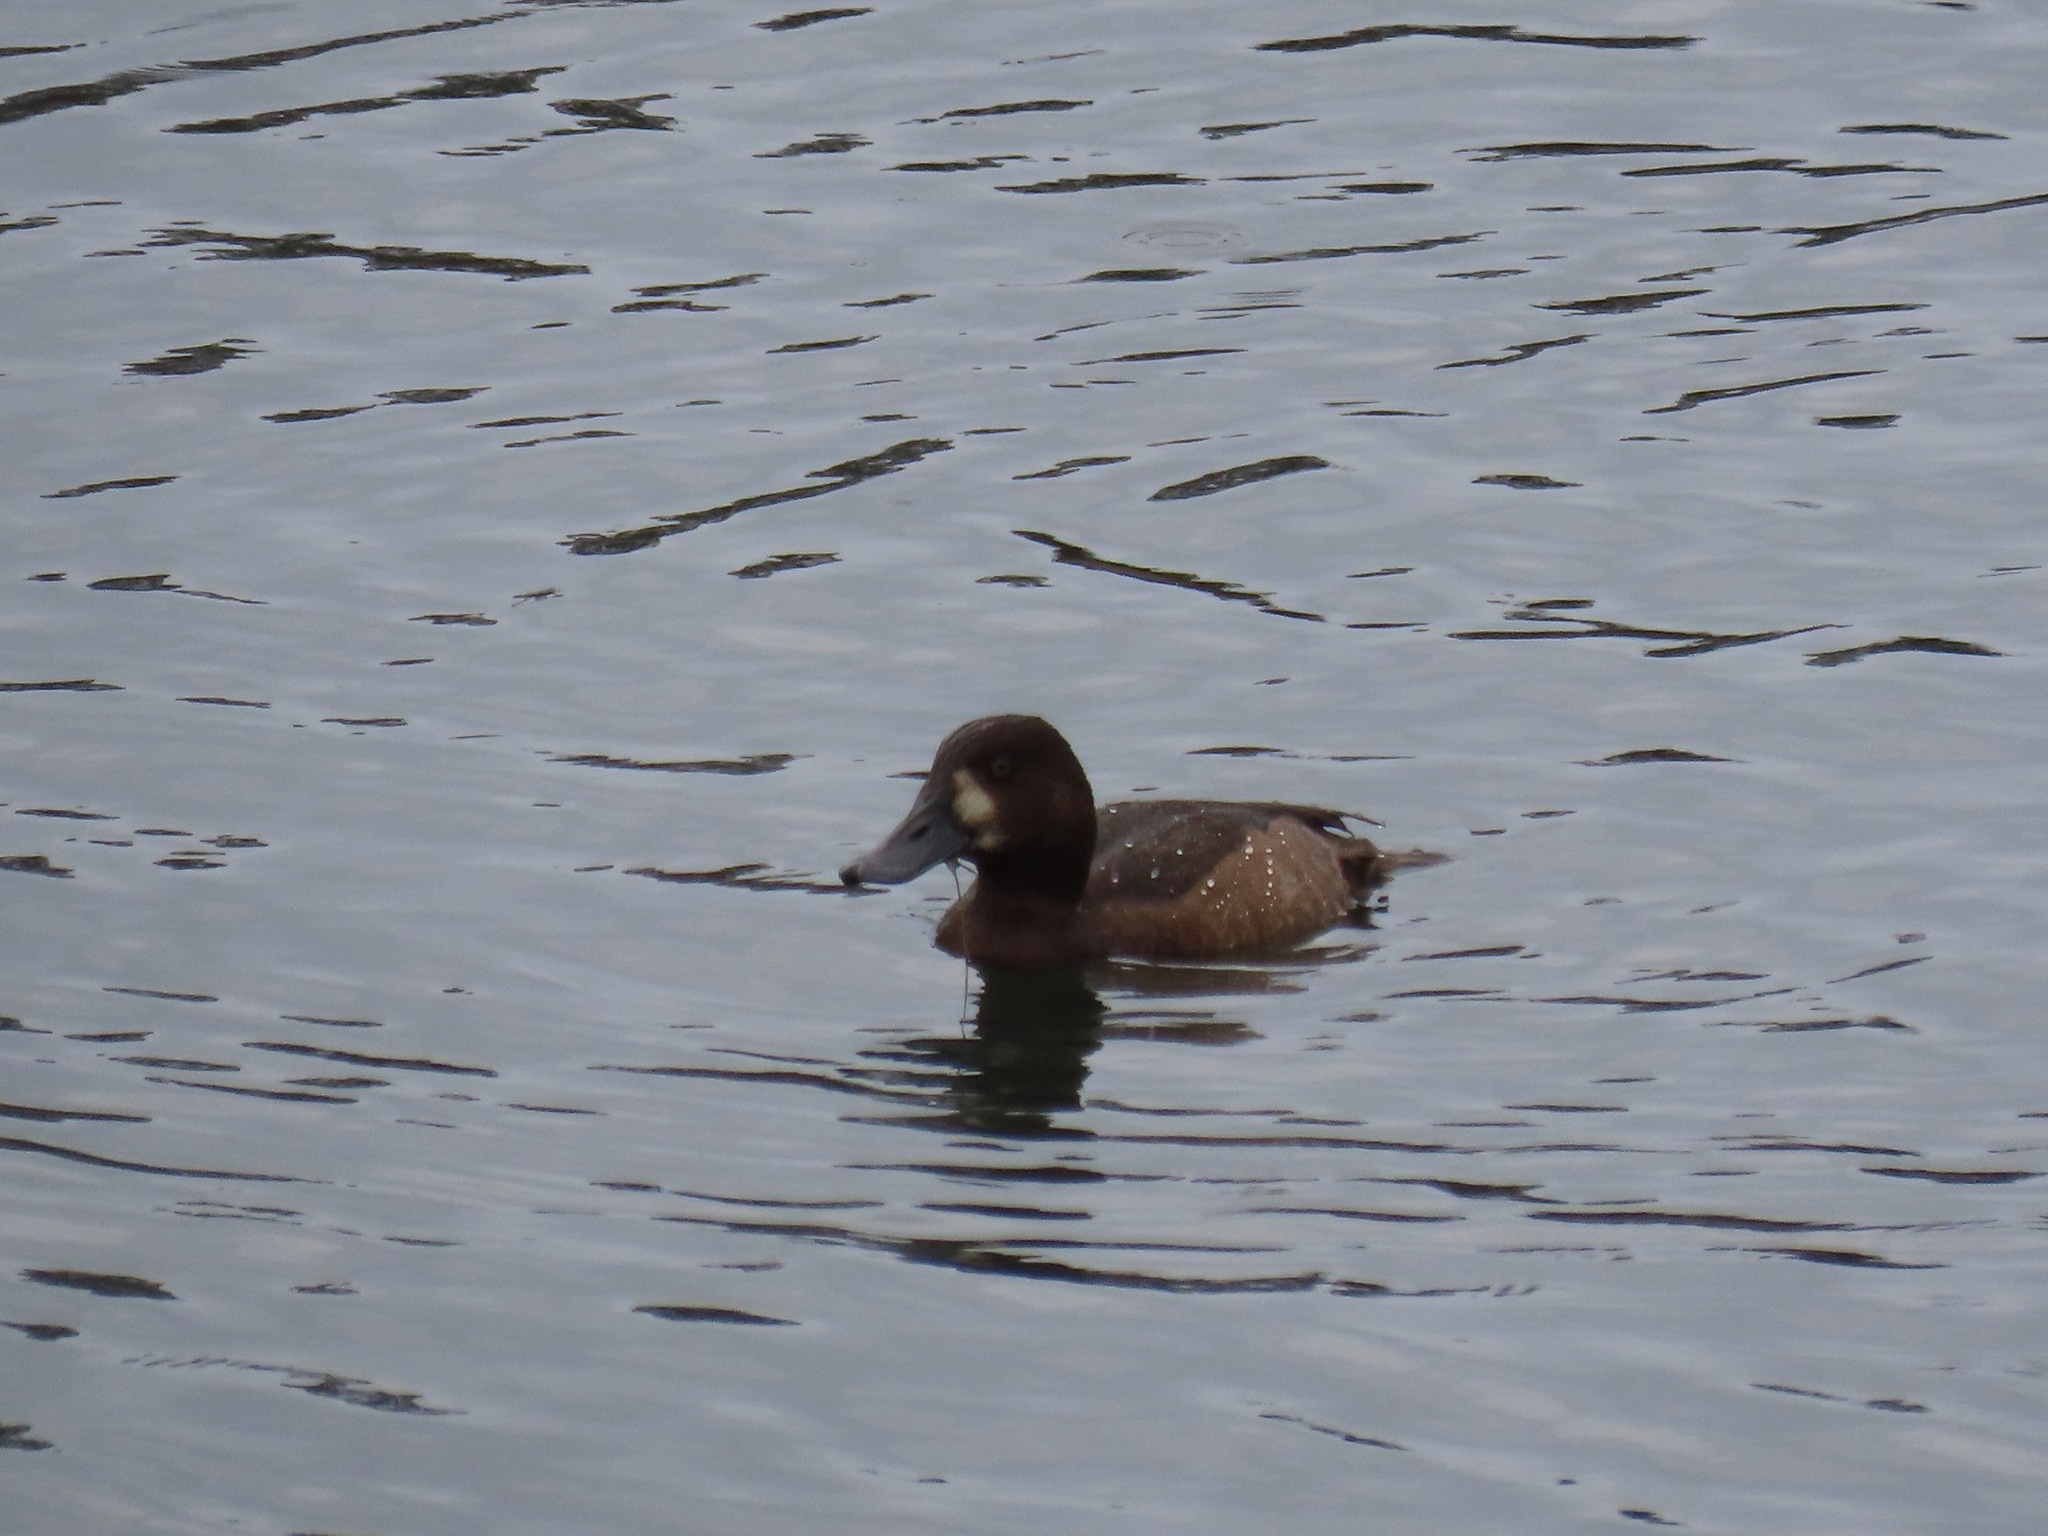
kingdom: Animalia
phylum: Chordata
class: Aves
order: Anseriformes
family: Anatidae
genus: Aythya
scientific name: Aythya marila
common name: Greater scaup
